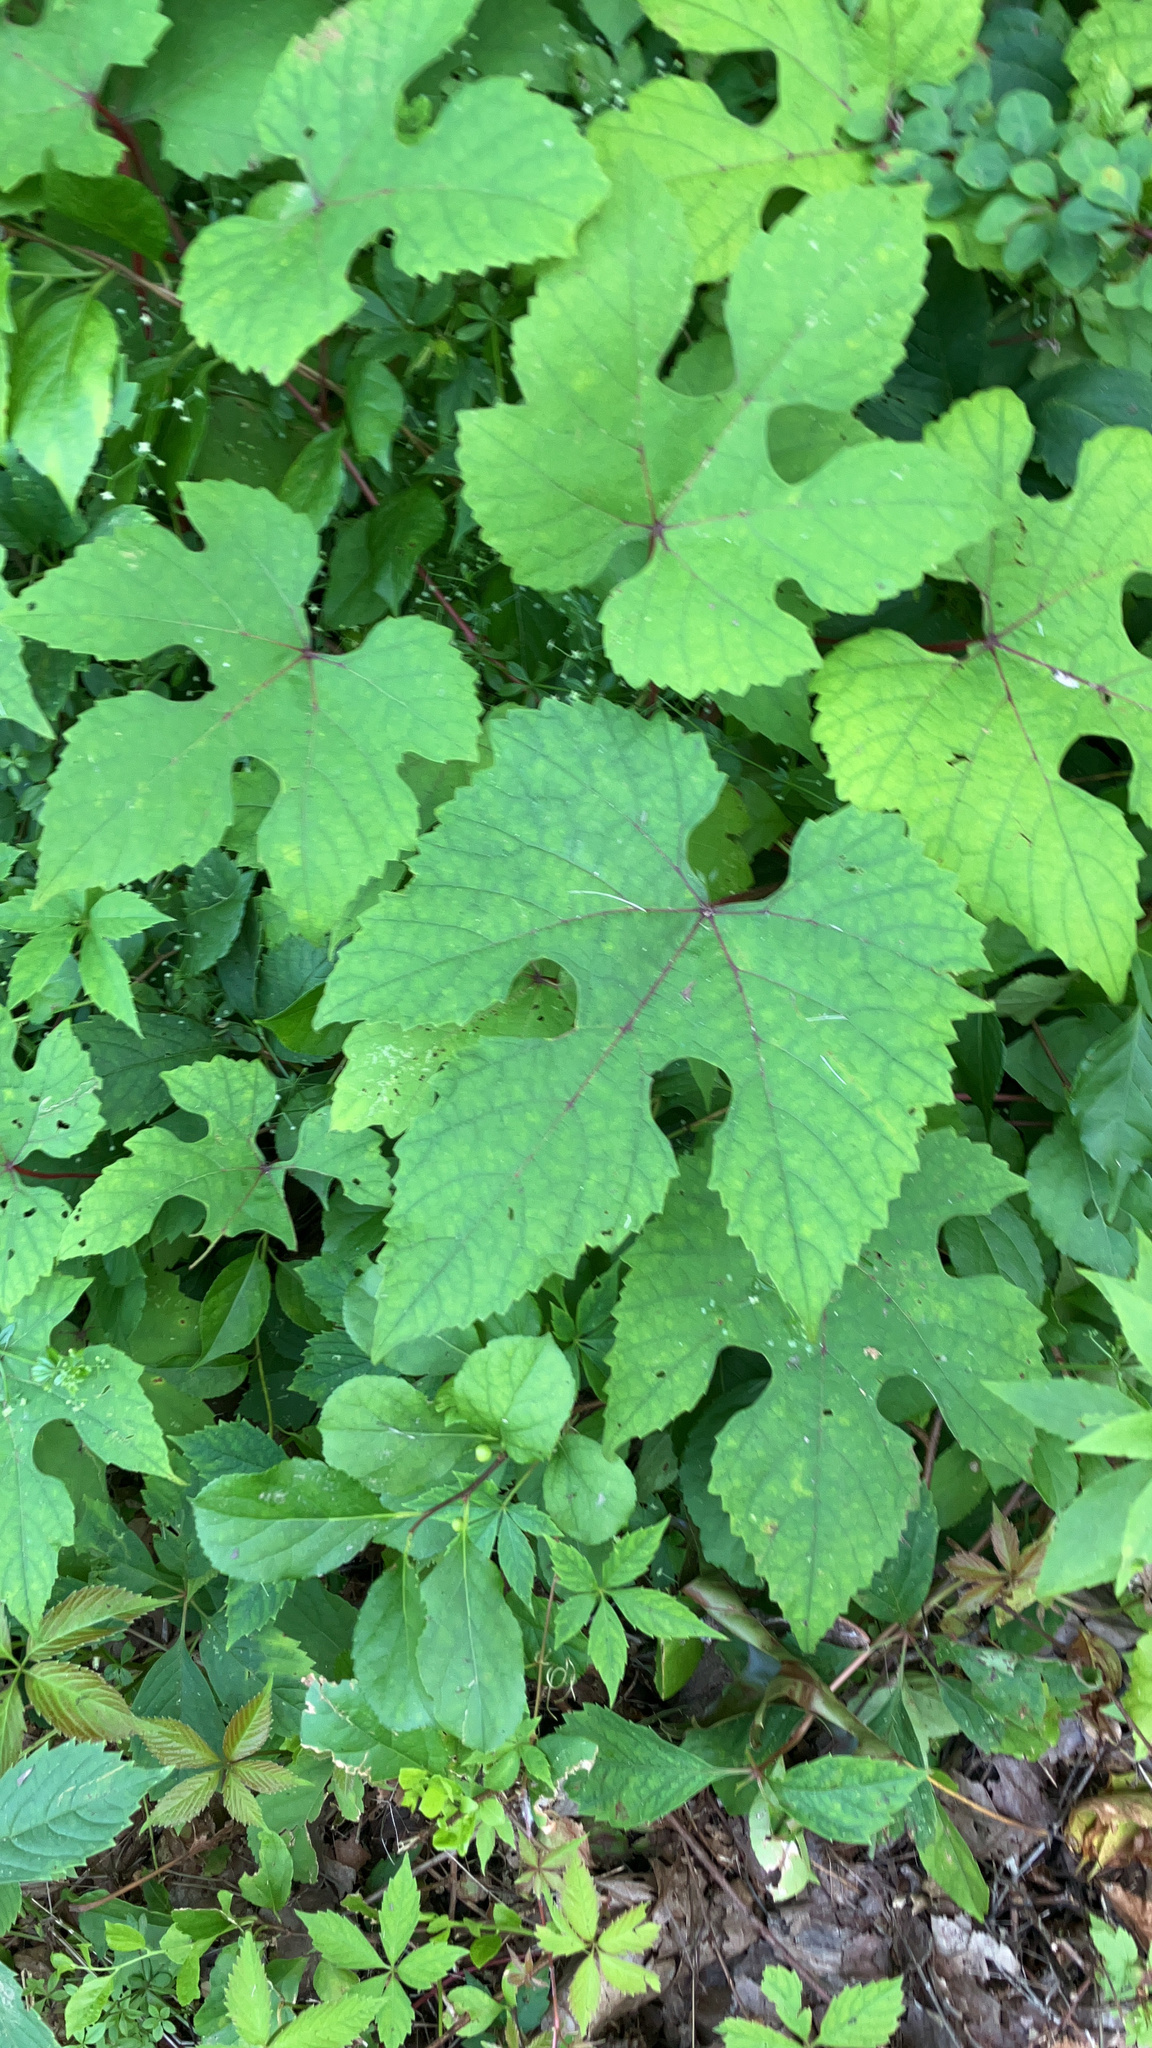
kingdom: Plantae
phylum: Tracheophyta
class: Magnoliopsida
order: Vitales
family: Vitaceae
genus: Vitis
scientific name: Vitis aestivalis
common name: Pigeon grape
